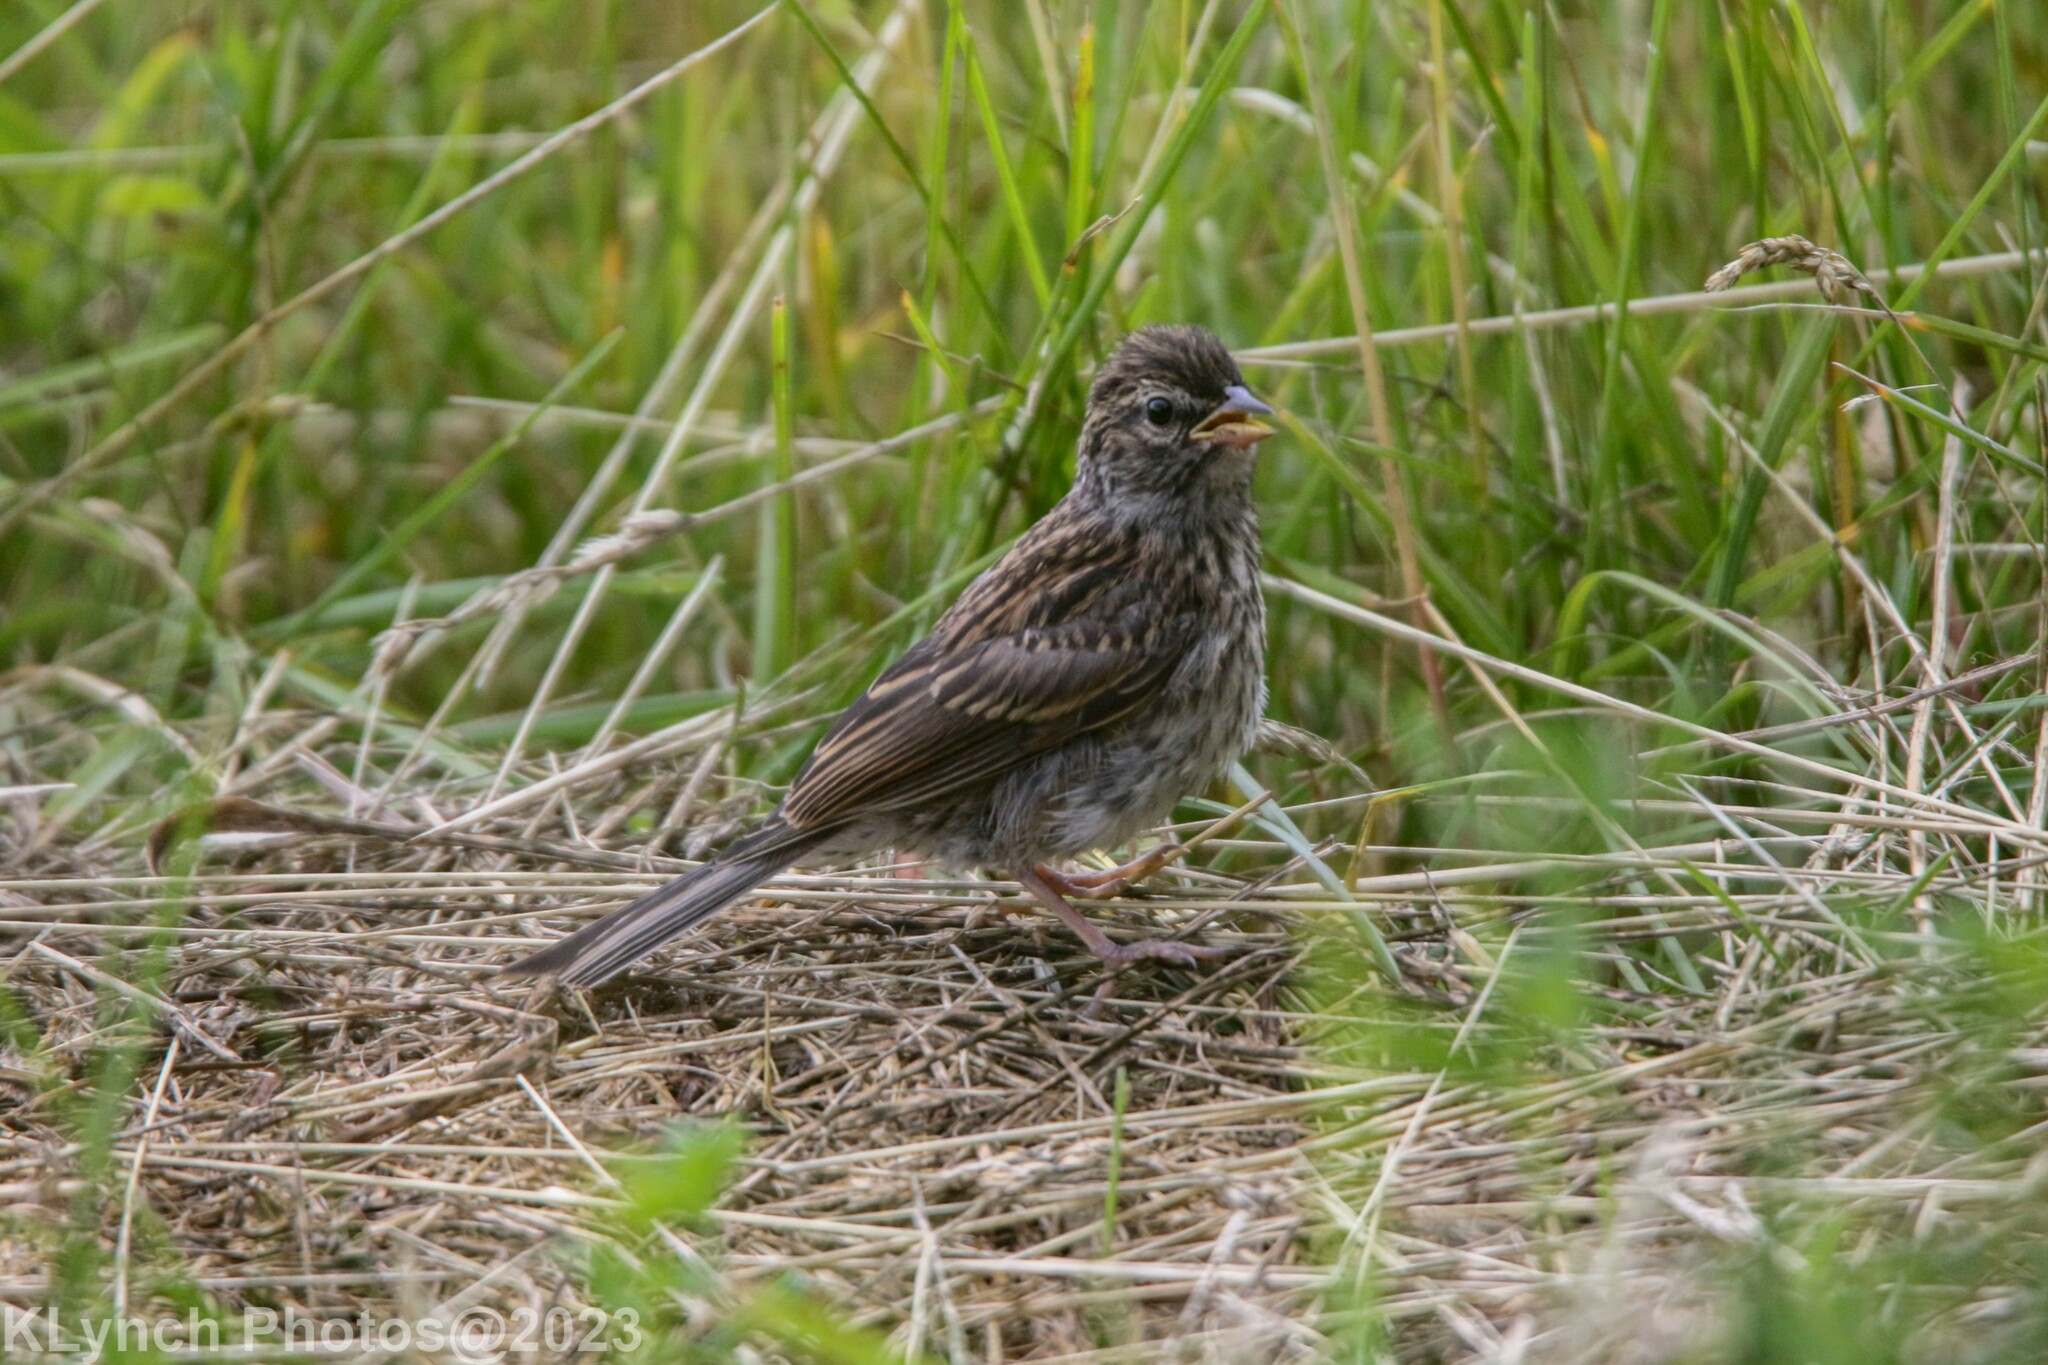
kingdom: Animalia
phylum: Chordata
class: Aves
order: Passeriformes
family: Passerellidae
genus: Spizella
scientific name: Spizella passerina
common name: Chipping sparrow
